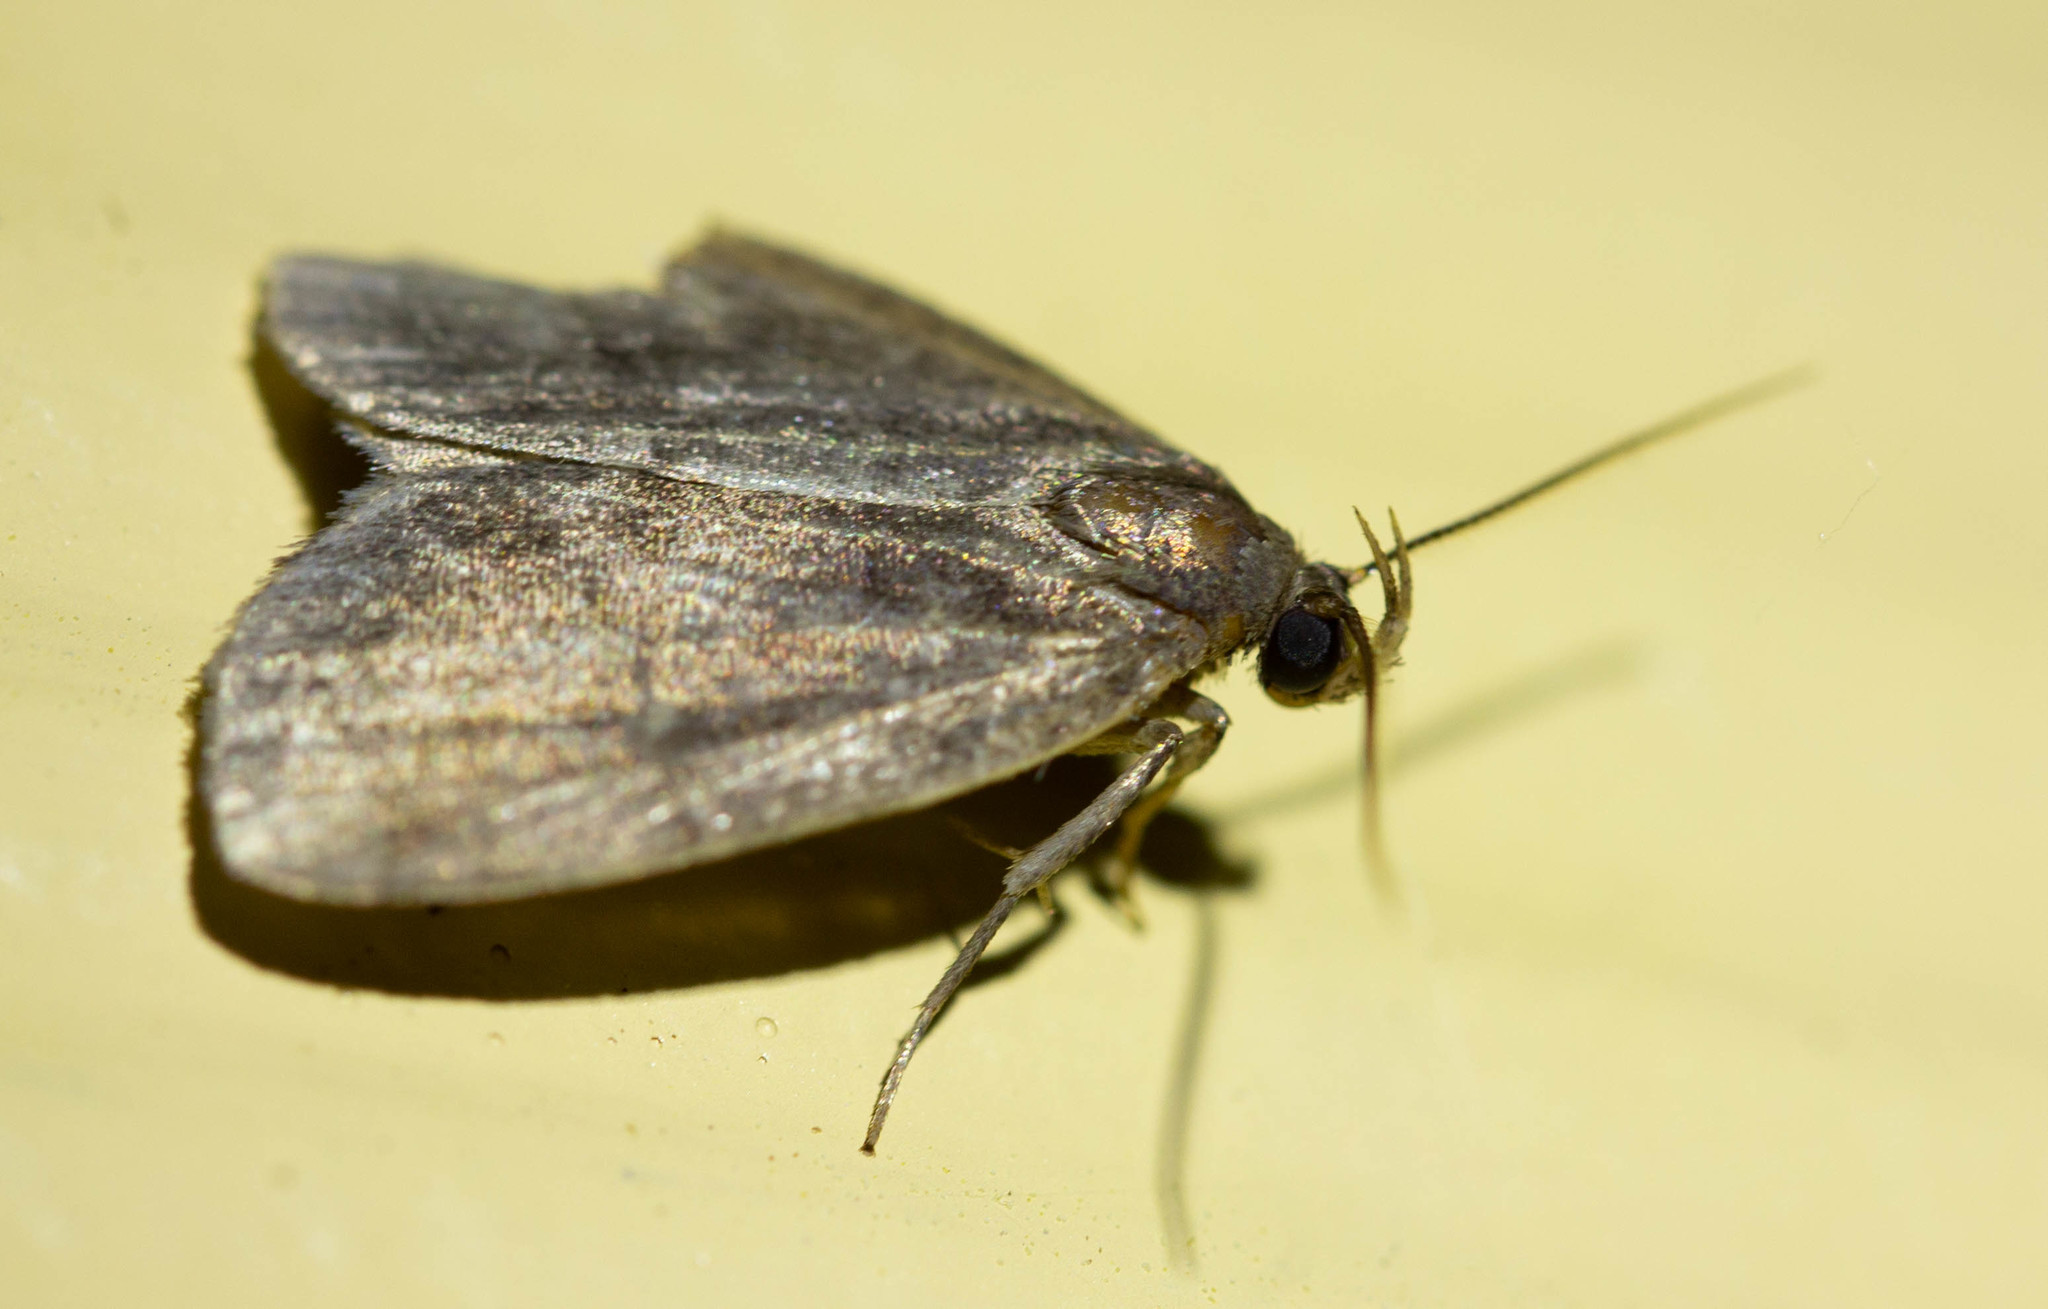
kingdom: Animalia
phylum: Arthropoda
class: Insecta
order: Lepidoptera
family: Erebidae
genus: Idia
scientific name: Idia rotundalis
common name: Rotund idia moth
